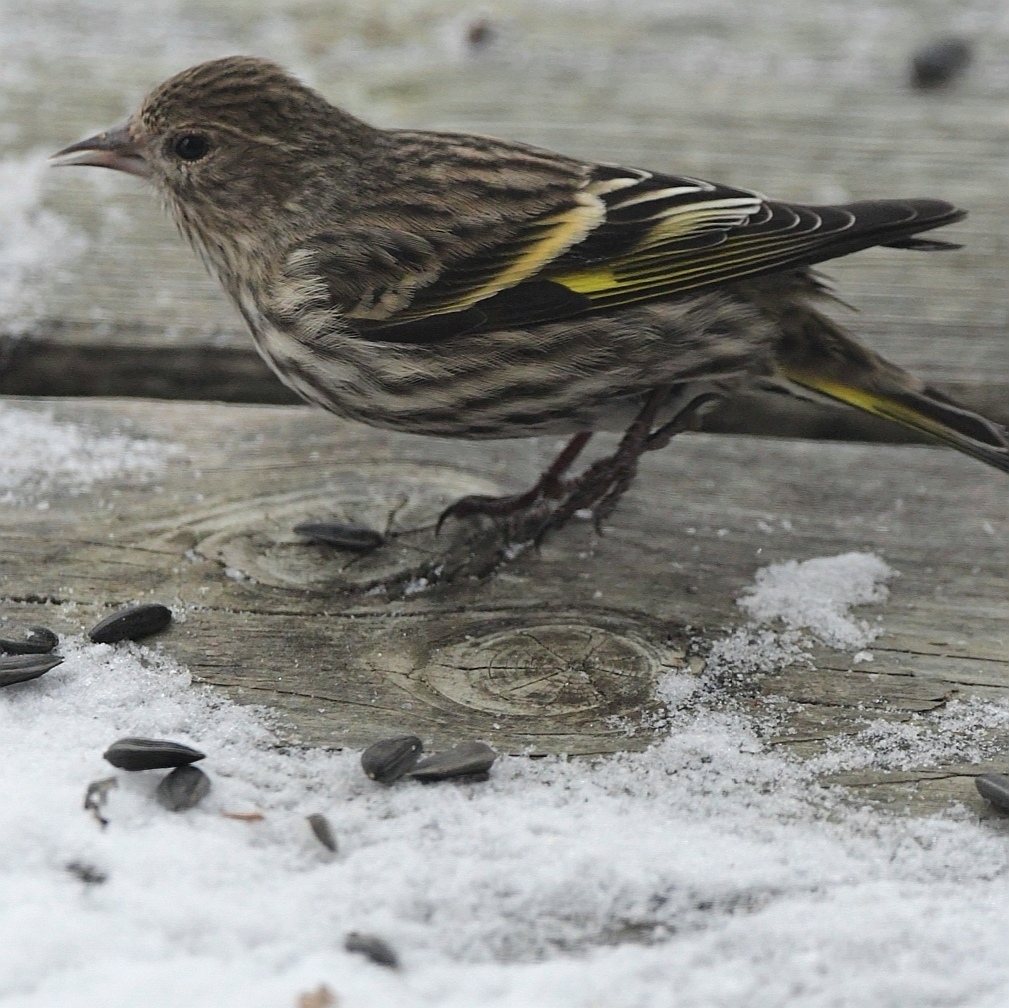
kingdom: Animalia
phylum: Chordata
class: Aves
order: Passeriformes
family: Fringillidae
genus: Spinus
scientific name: Spinus pinus
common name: Pine siskin
